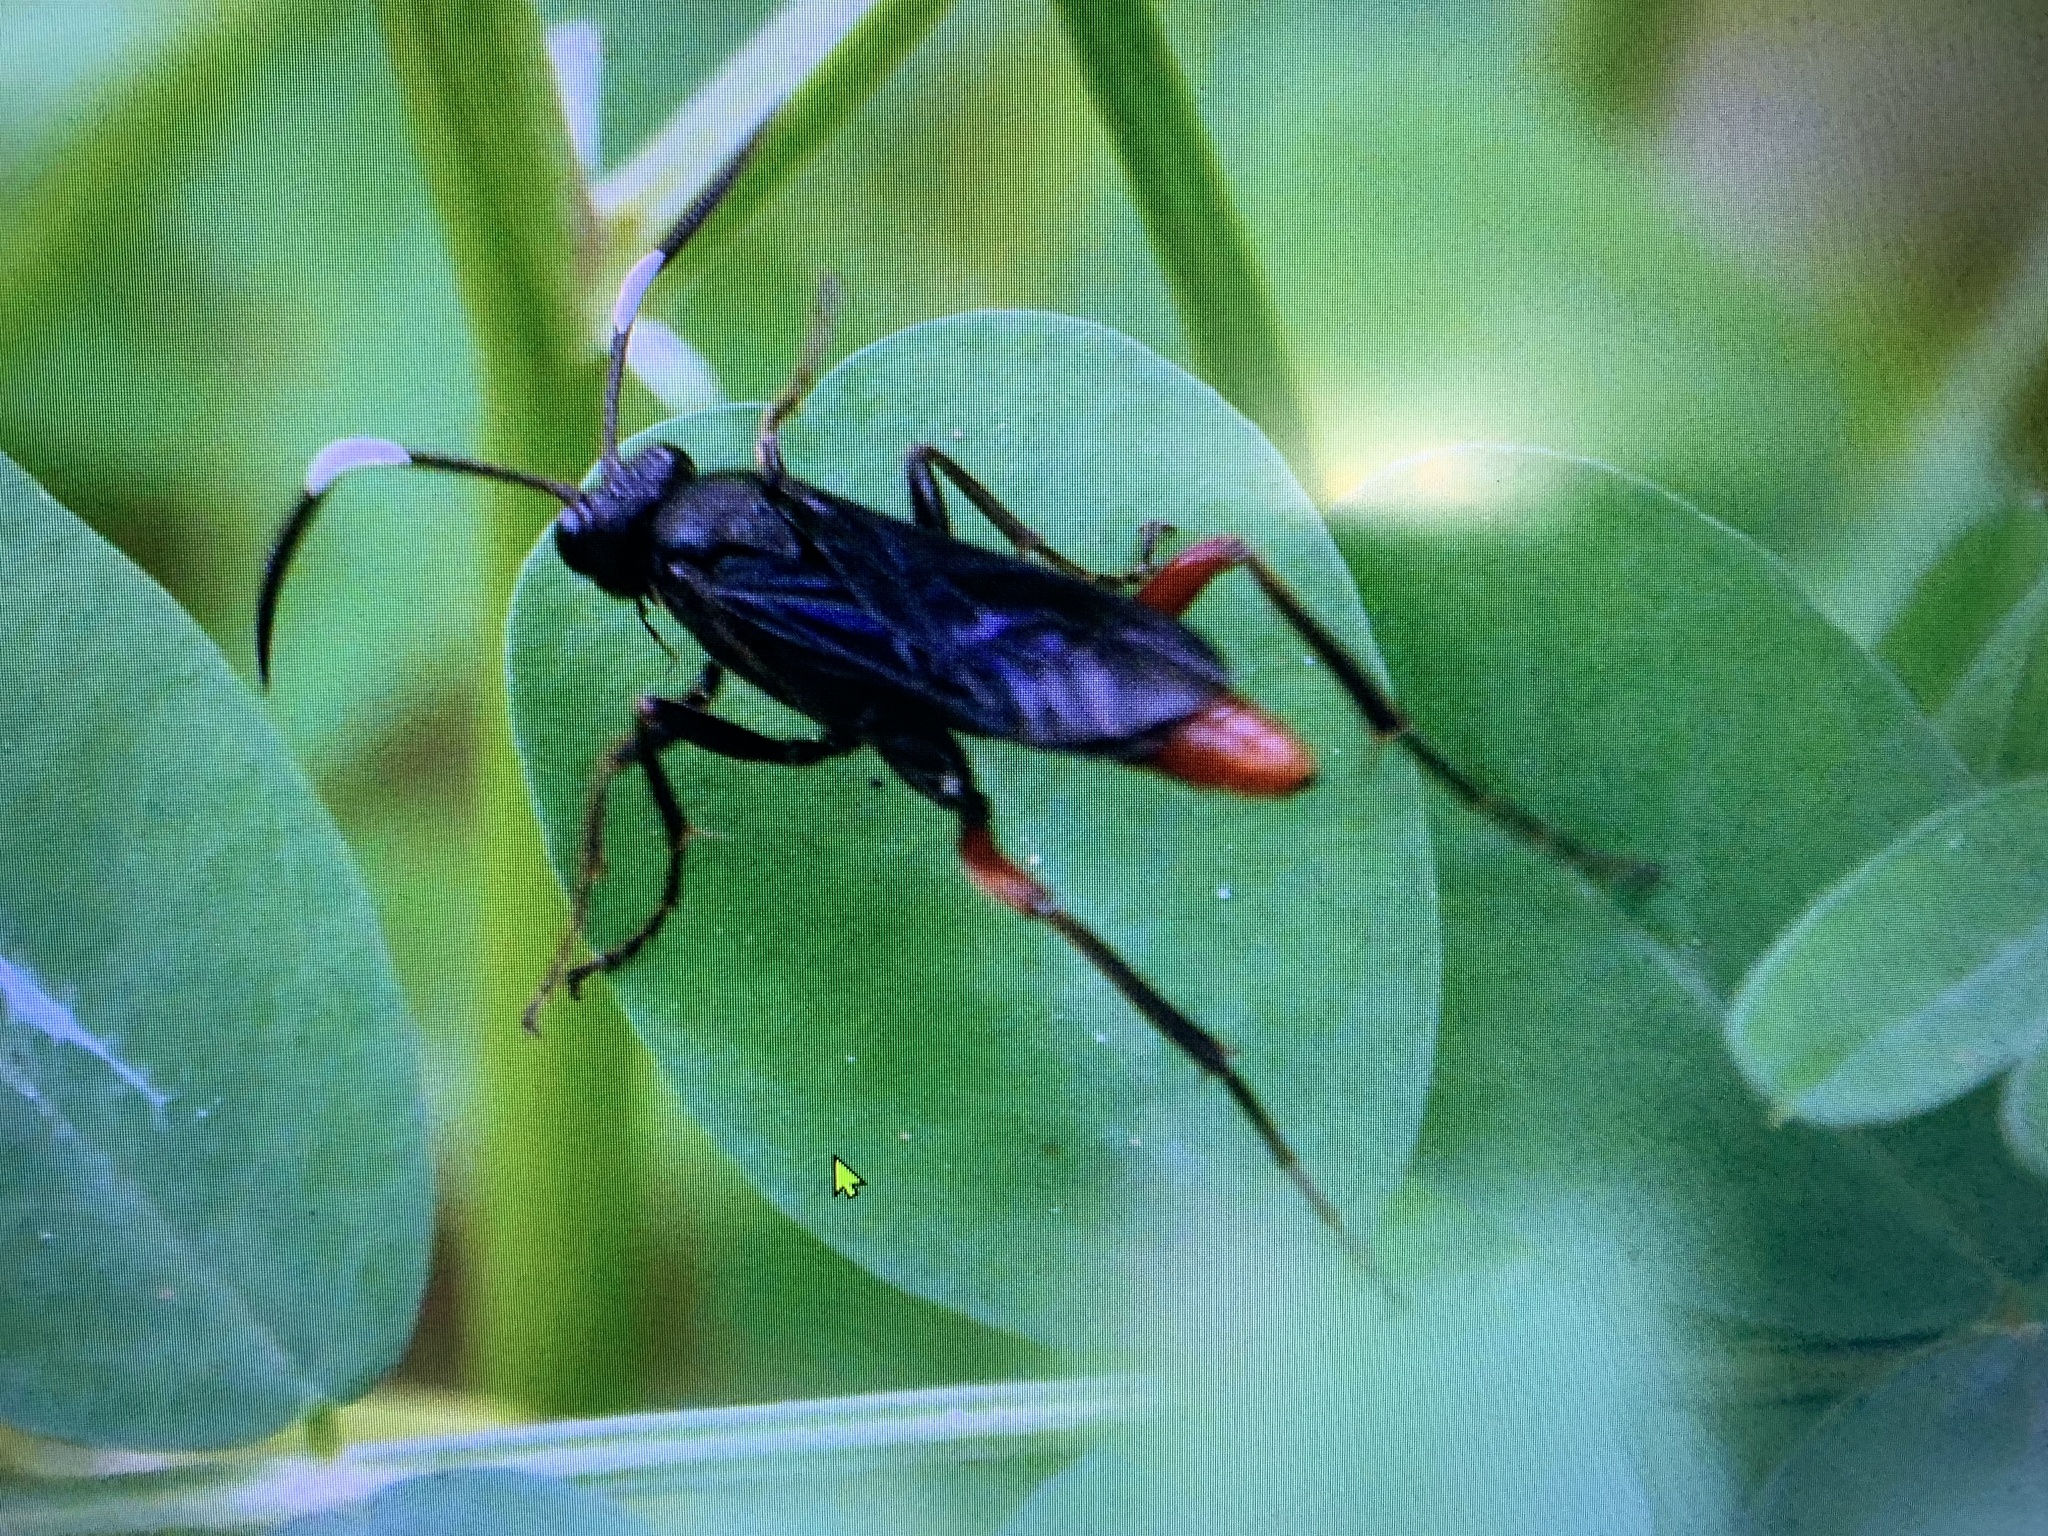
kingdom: Animalia
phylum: Arthropoda
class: Insecta
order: Hymenoptera
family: Ichneumonidae
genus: Limonethe
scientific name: Limonethe maurator
